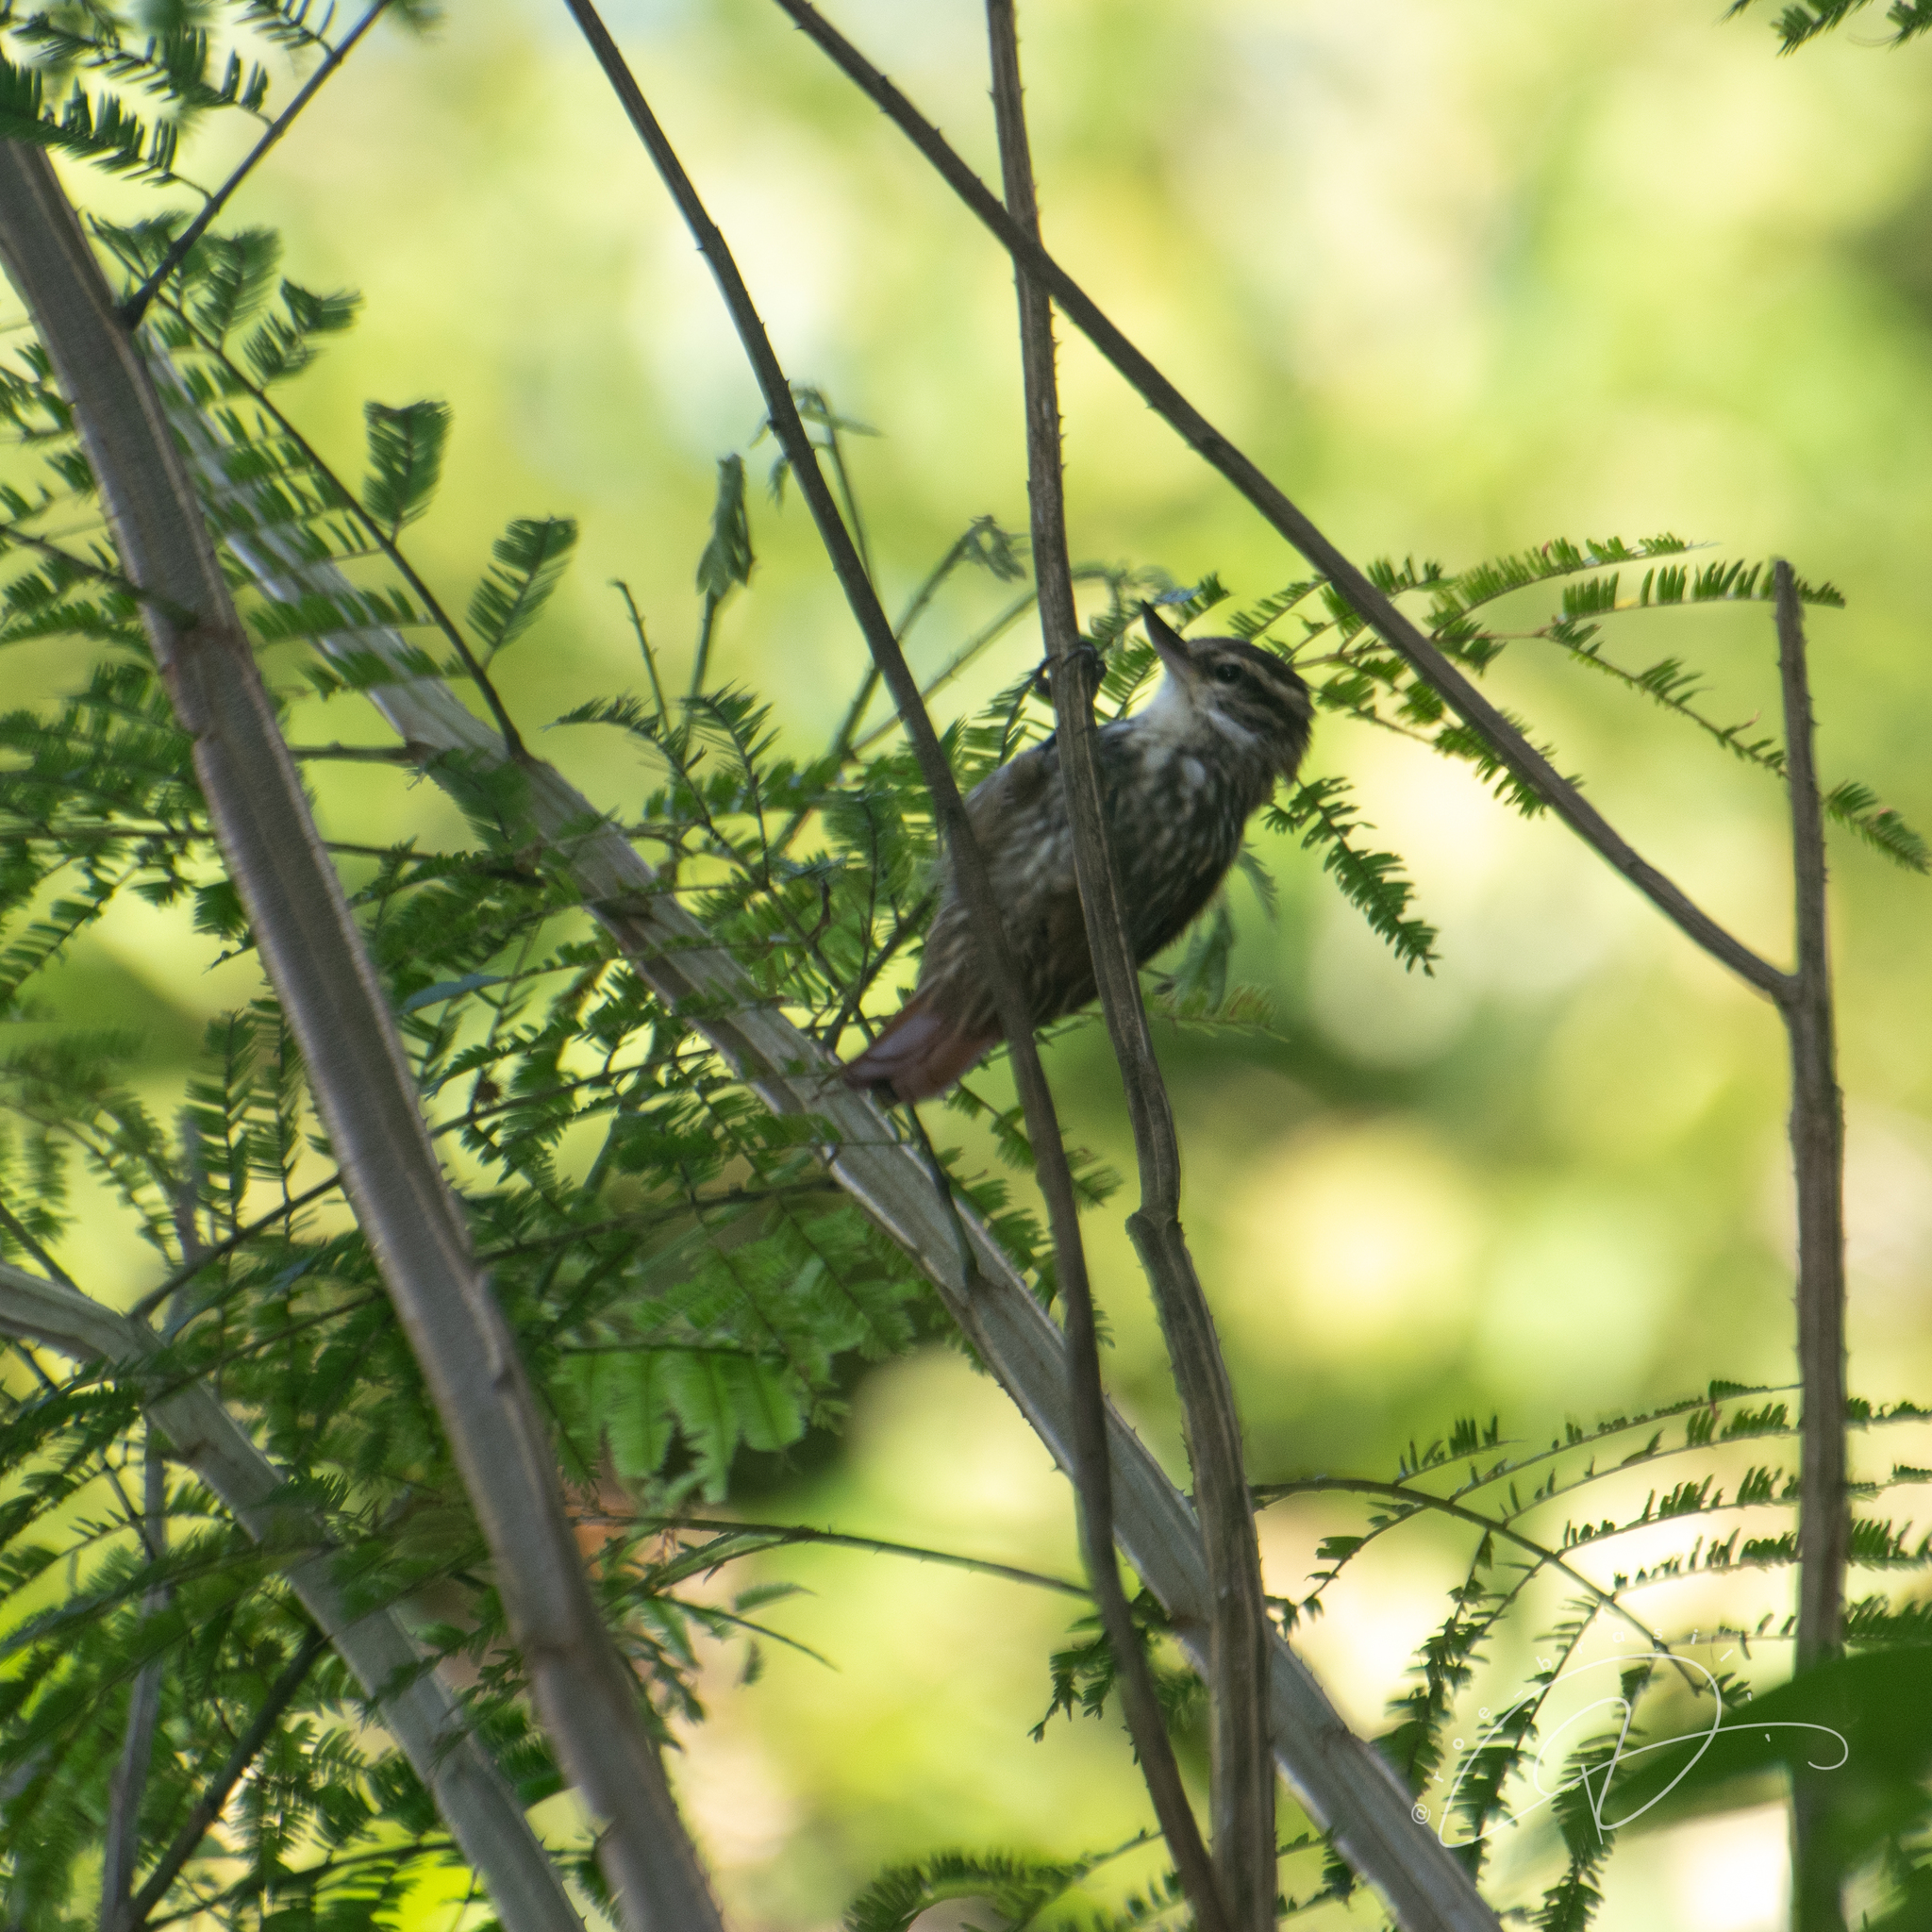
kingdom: Animalia
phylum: Chordata
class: Aves
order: Passeriformes
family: Furnariidae
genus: Xenops
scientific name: Xenops rutilans
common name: Streaked xenops
